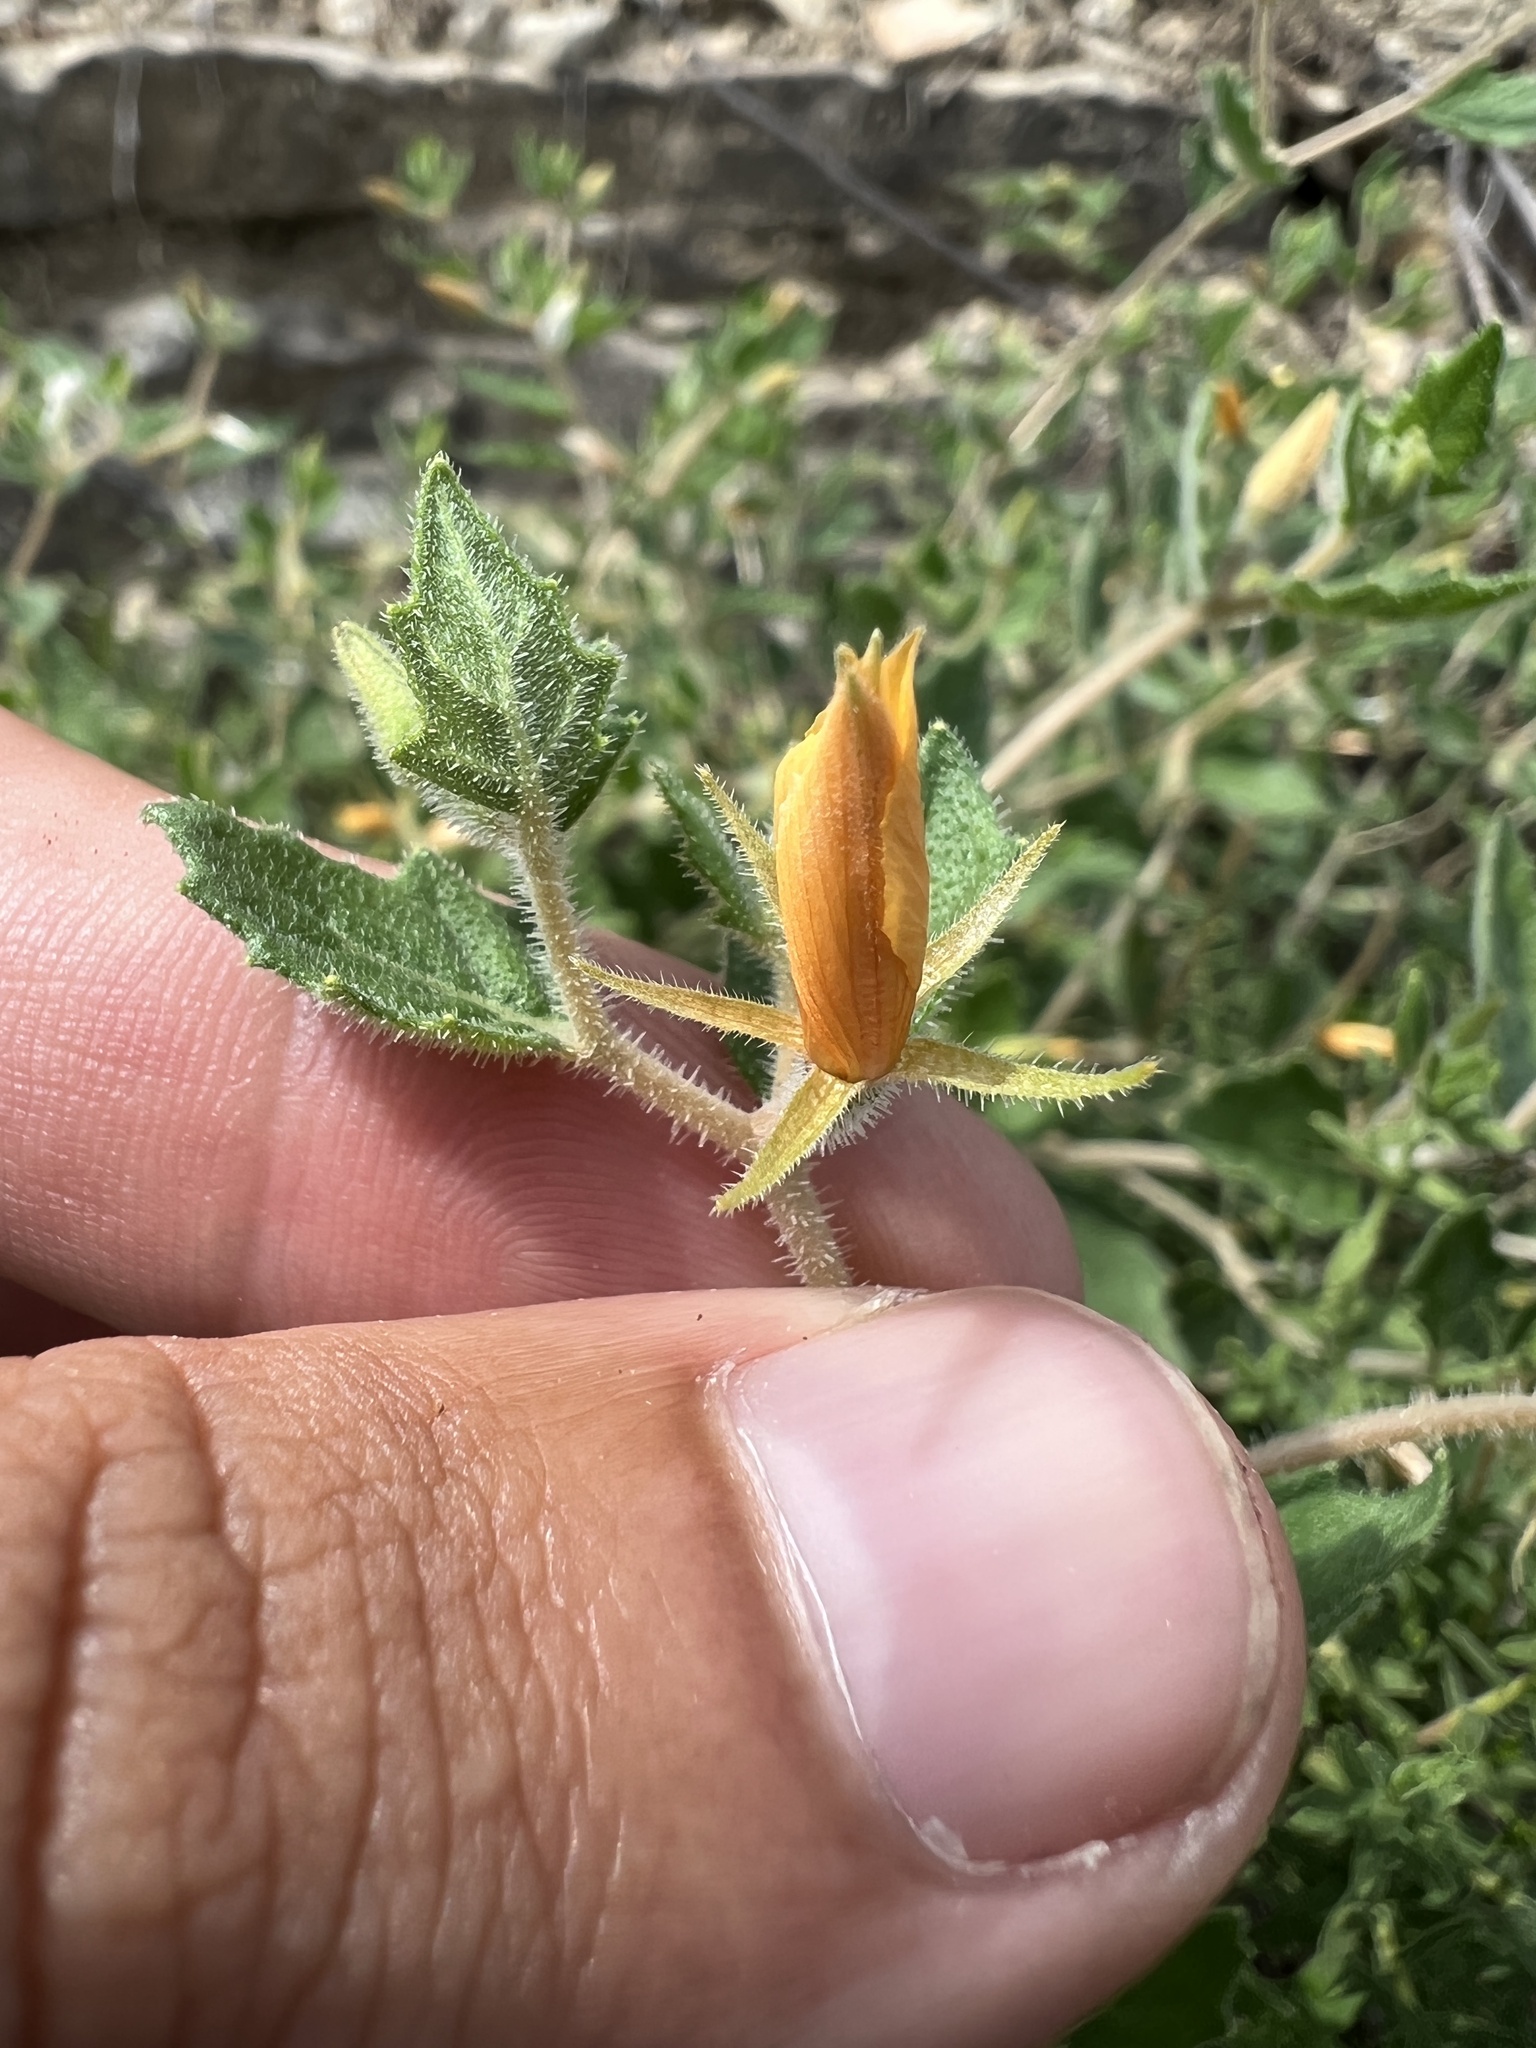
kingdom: Plantae
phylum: Tracheophyta
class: Magnoliopsida
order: Cornales
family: Loasaceae
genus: Mentzelia
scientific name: Mentzelia oligosperma
